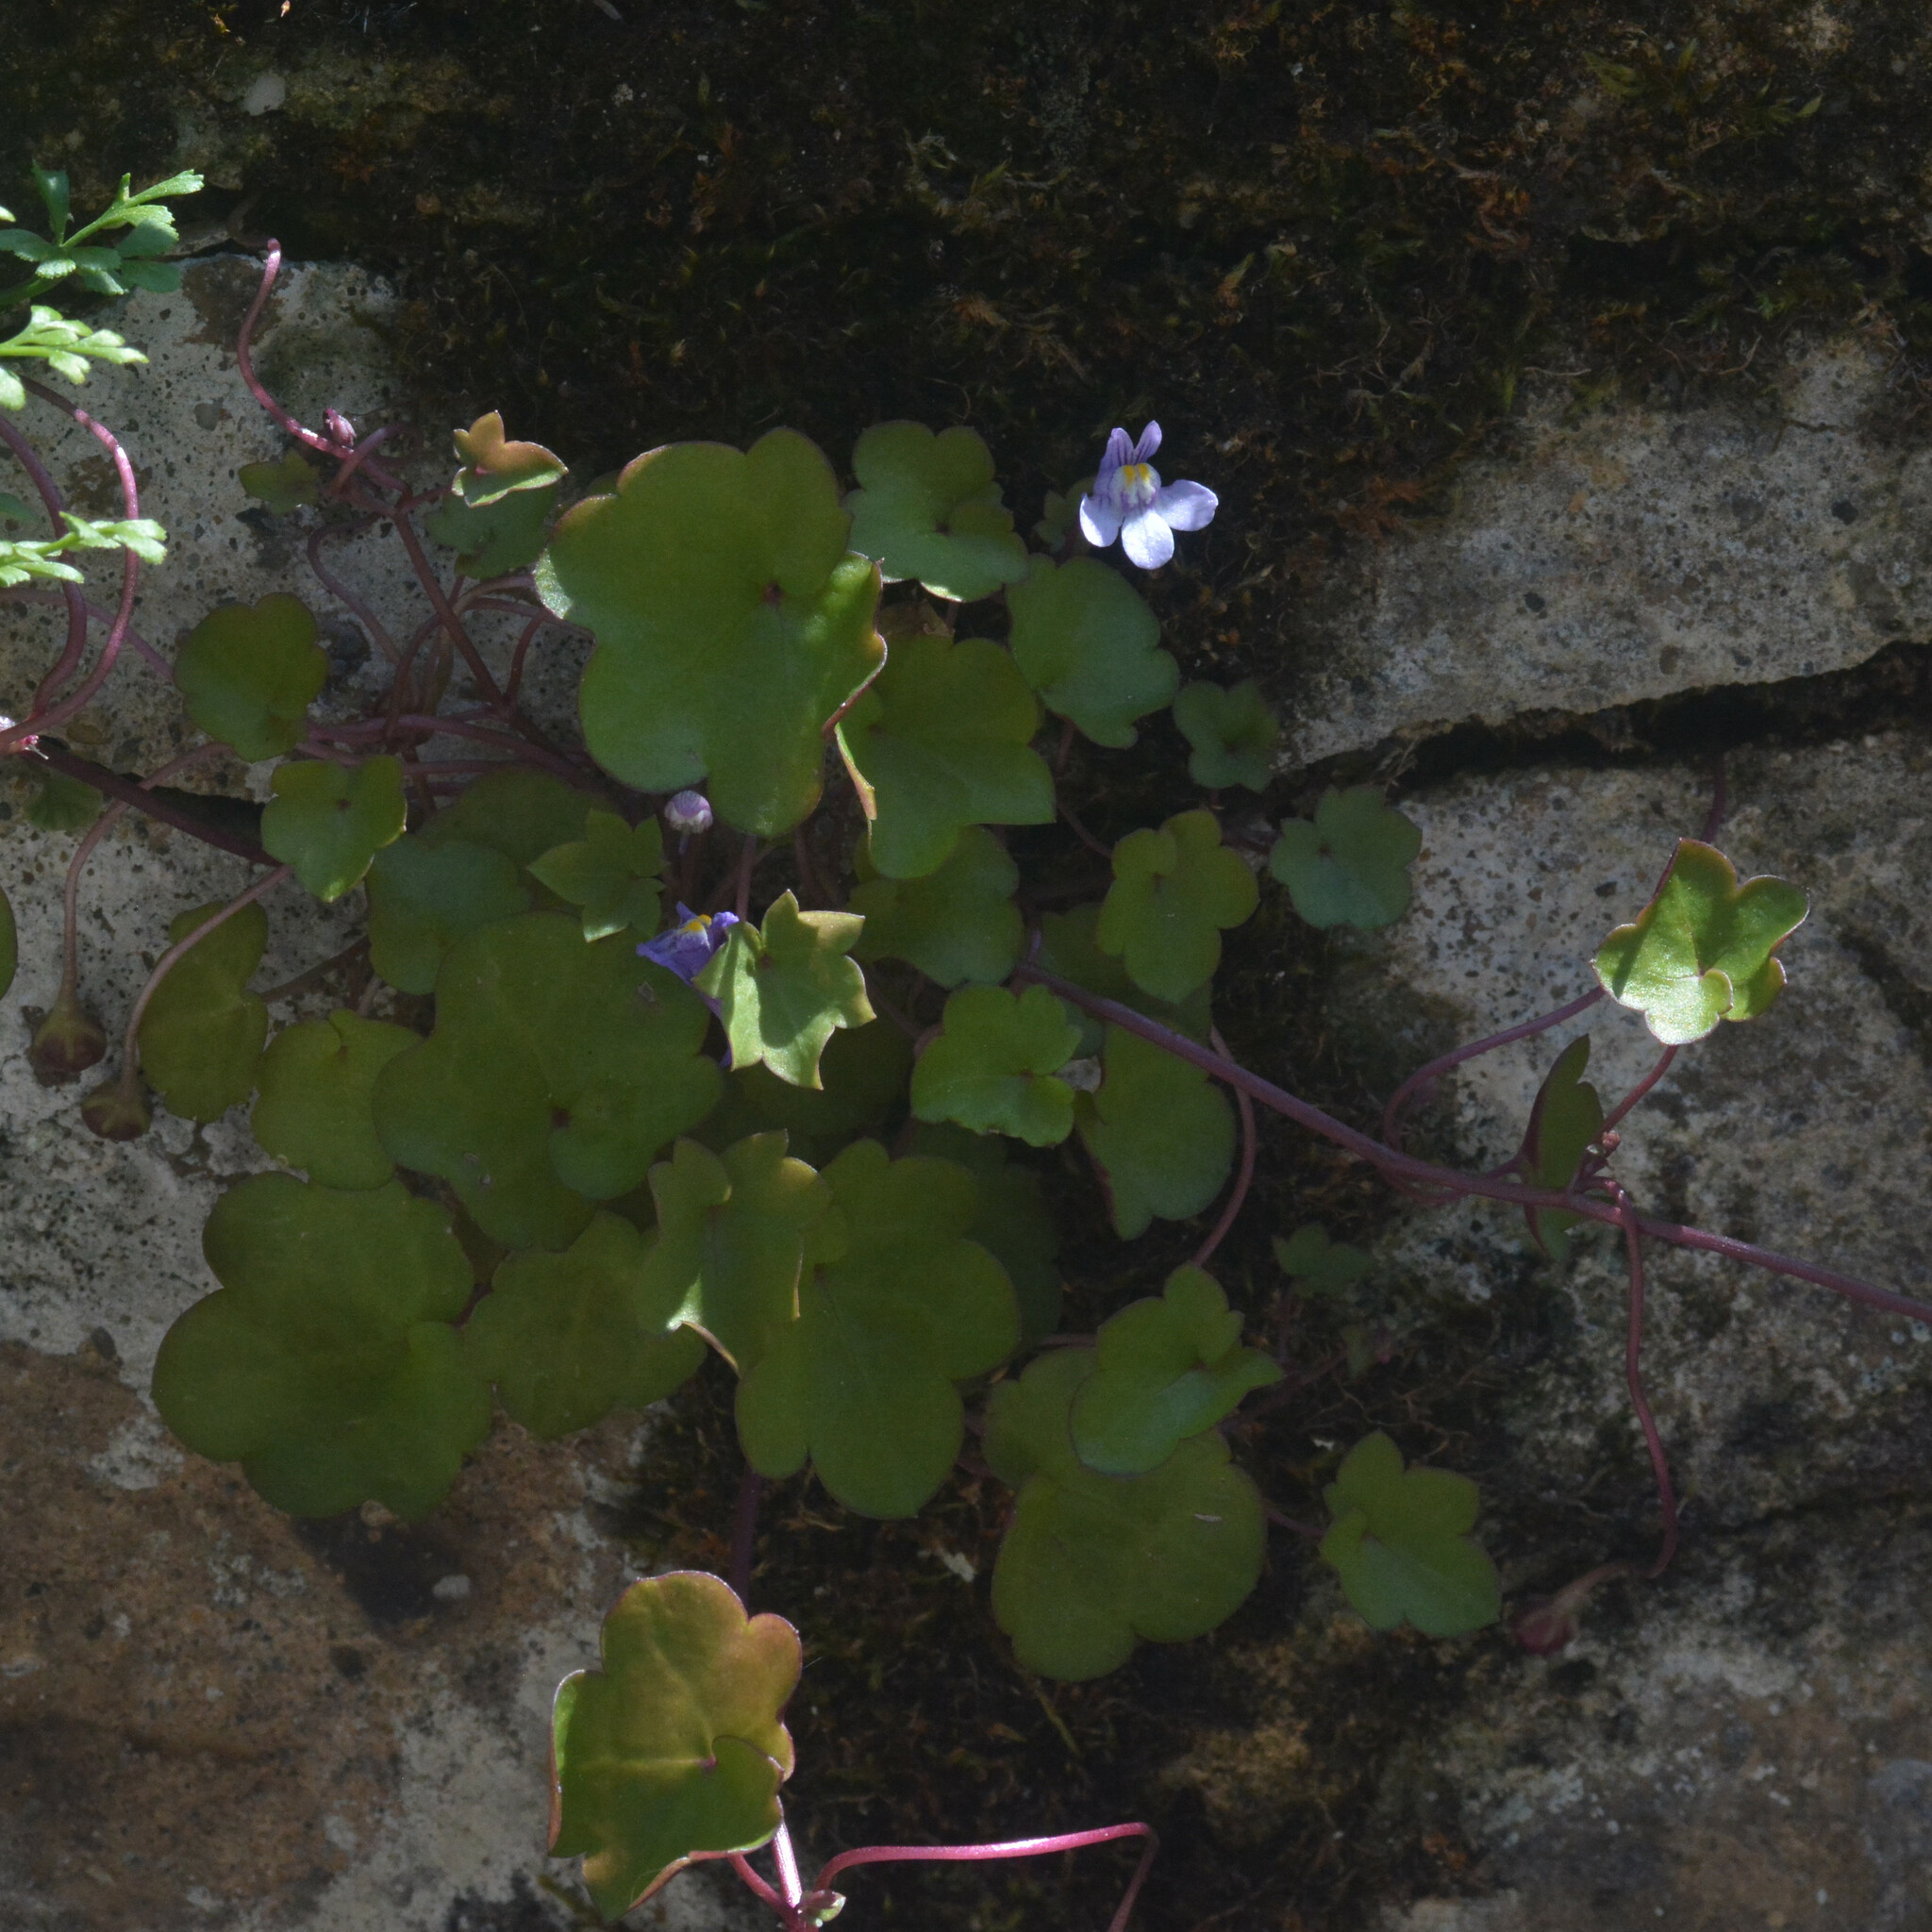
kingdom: Plantae
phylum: Tracheophyta
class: Magnoliopsida
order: Lamiales
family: Plantaginaceae
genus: Cymbalaria
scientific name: Cymbalaria muralis
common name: Ivy-leaved toadflax
